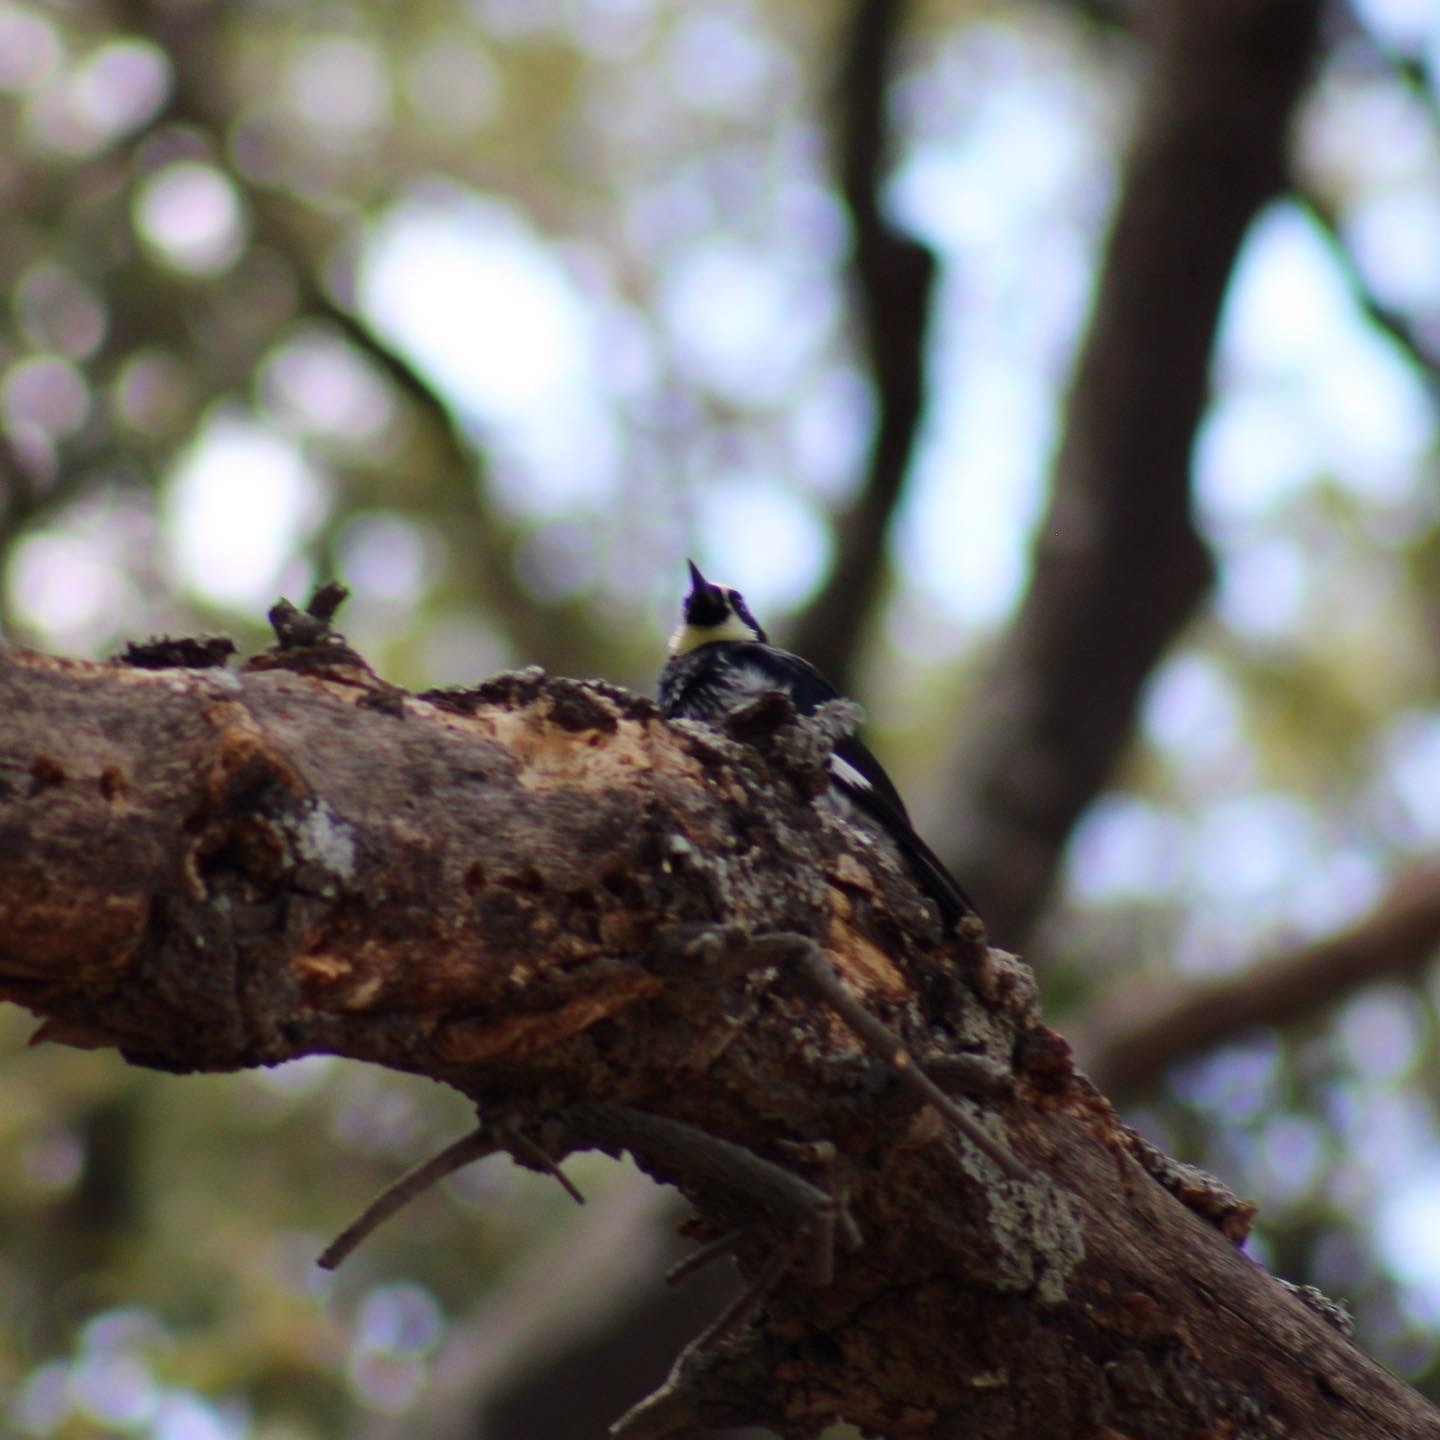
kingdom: Animalia
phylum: Chordata
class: Aves
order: Piciformes
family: Picidae
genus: Melanerpes
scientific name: Melanerpes formicivorus
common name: Acorn woodpecker
